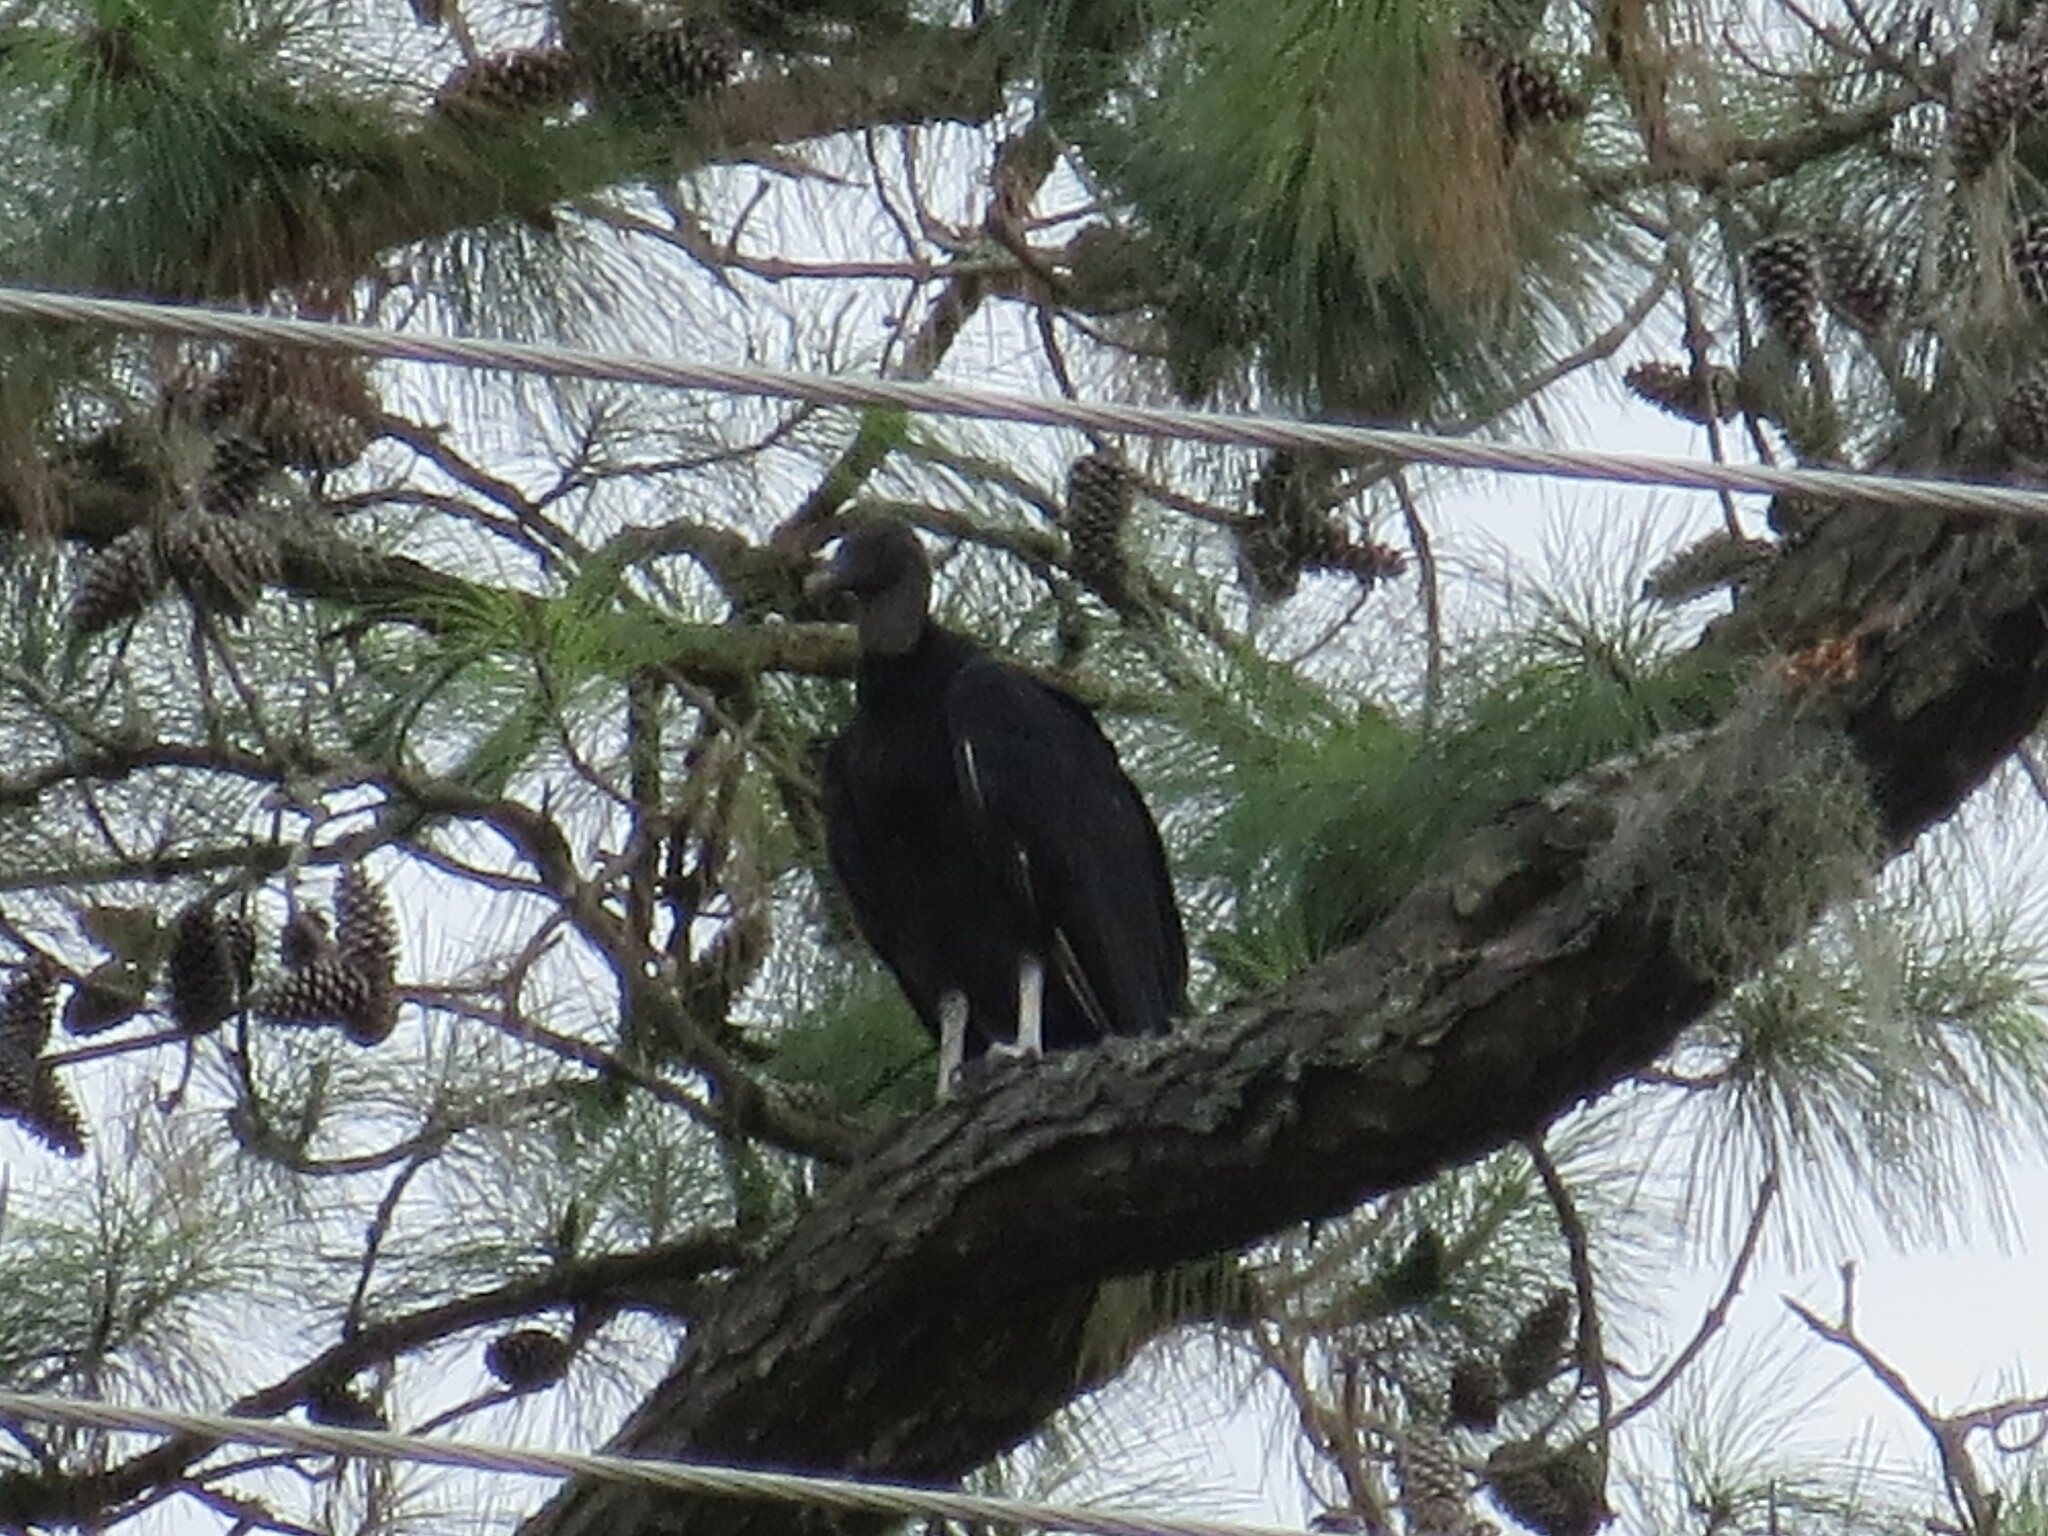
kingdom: Animalia
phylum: Chordata
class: Aves
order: Accipitriformes
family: Cathartidae
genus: Coragyps
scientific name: Coragyps atratus
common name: Black vulture
